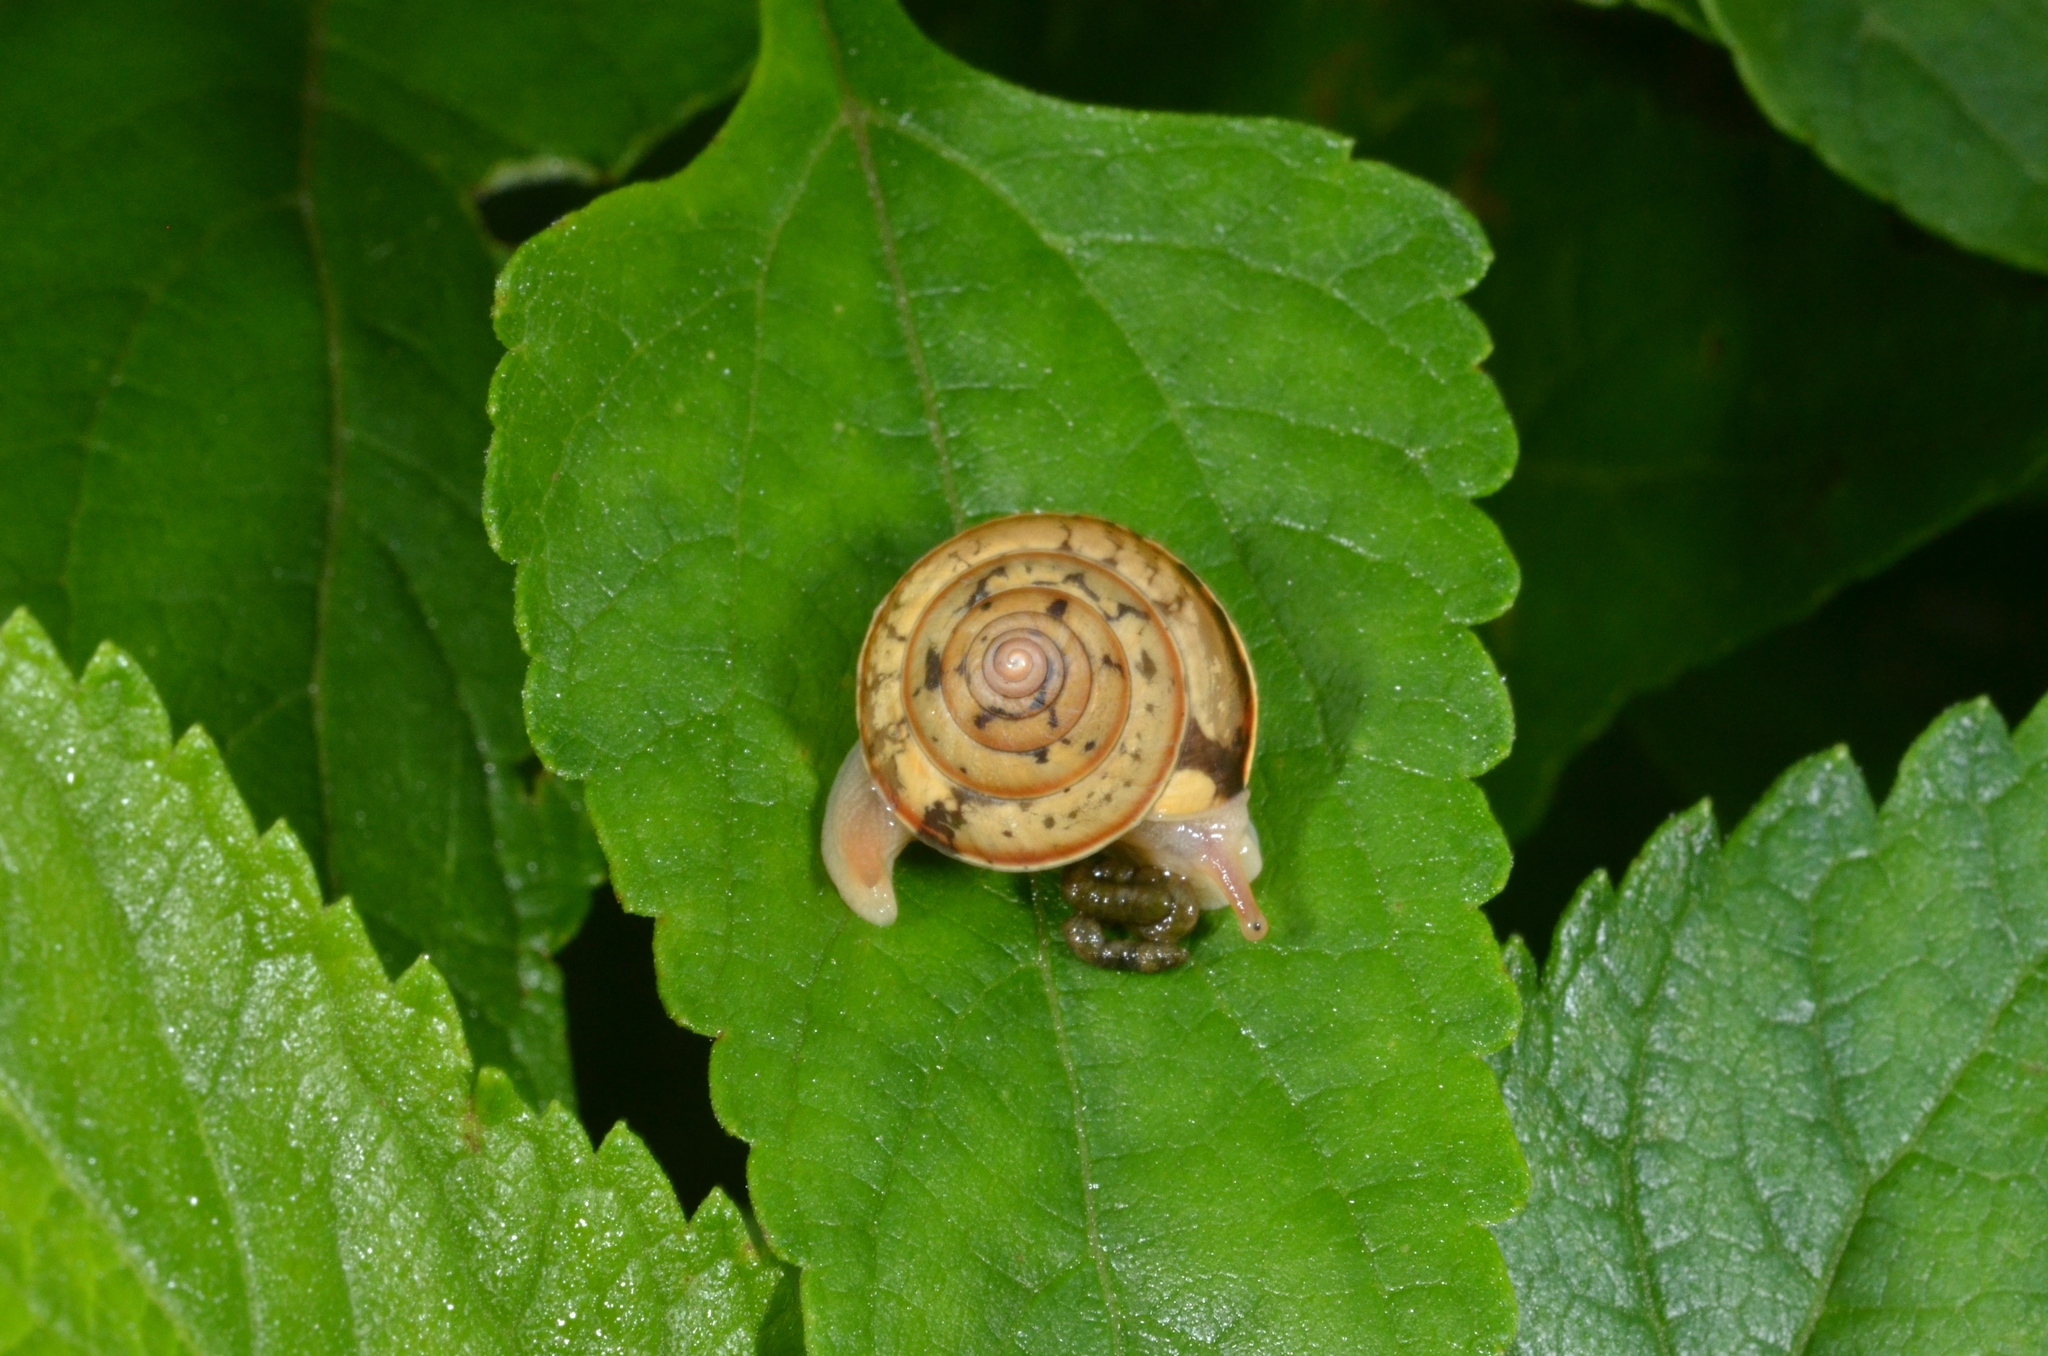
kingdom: Animalia
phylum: Mollusca
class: Gastropoda
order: Stylommatophora
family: Ariophantidae
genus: Euplecta
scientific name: Euplecta hyphasma
